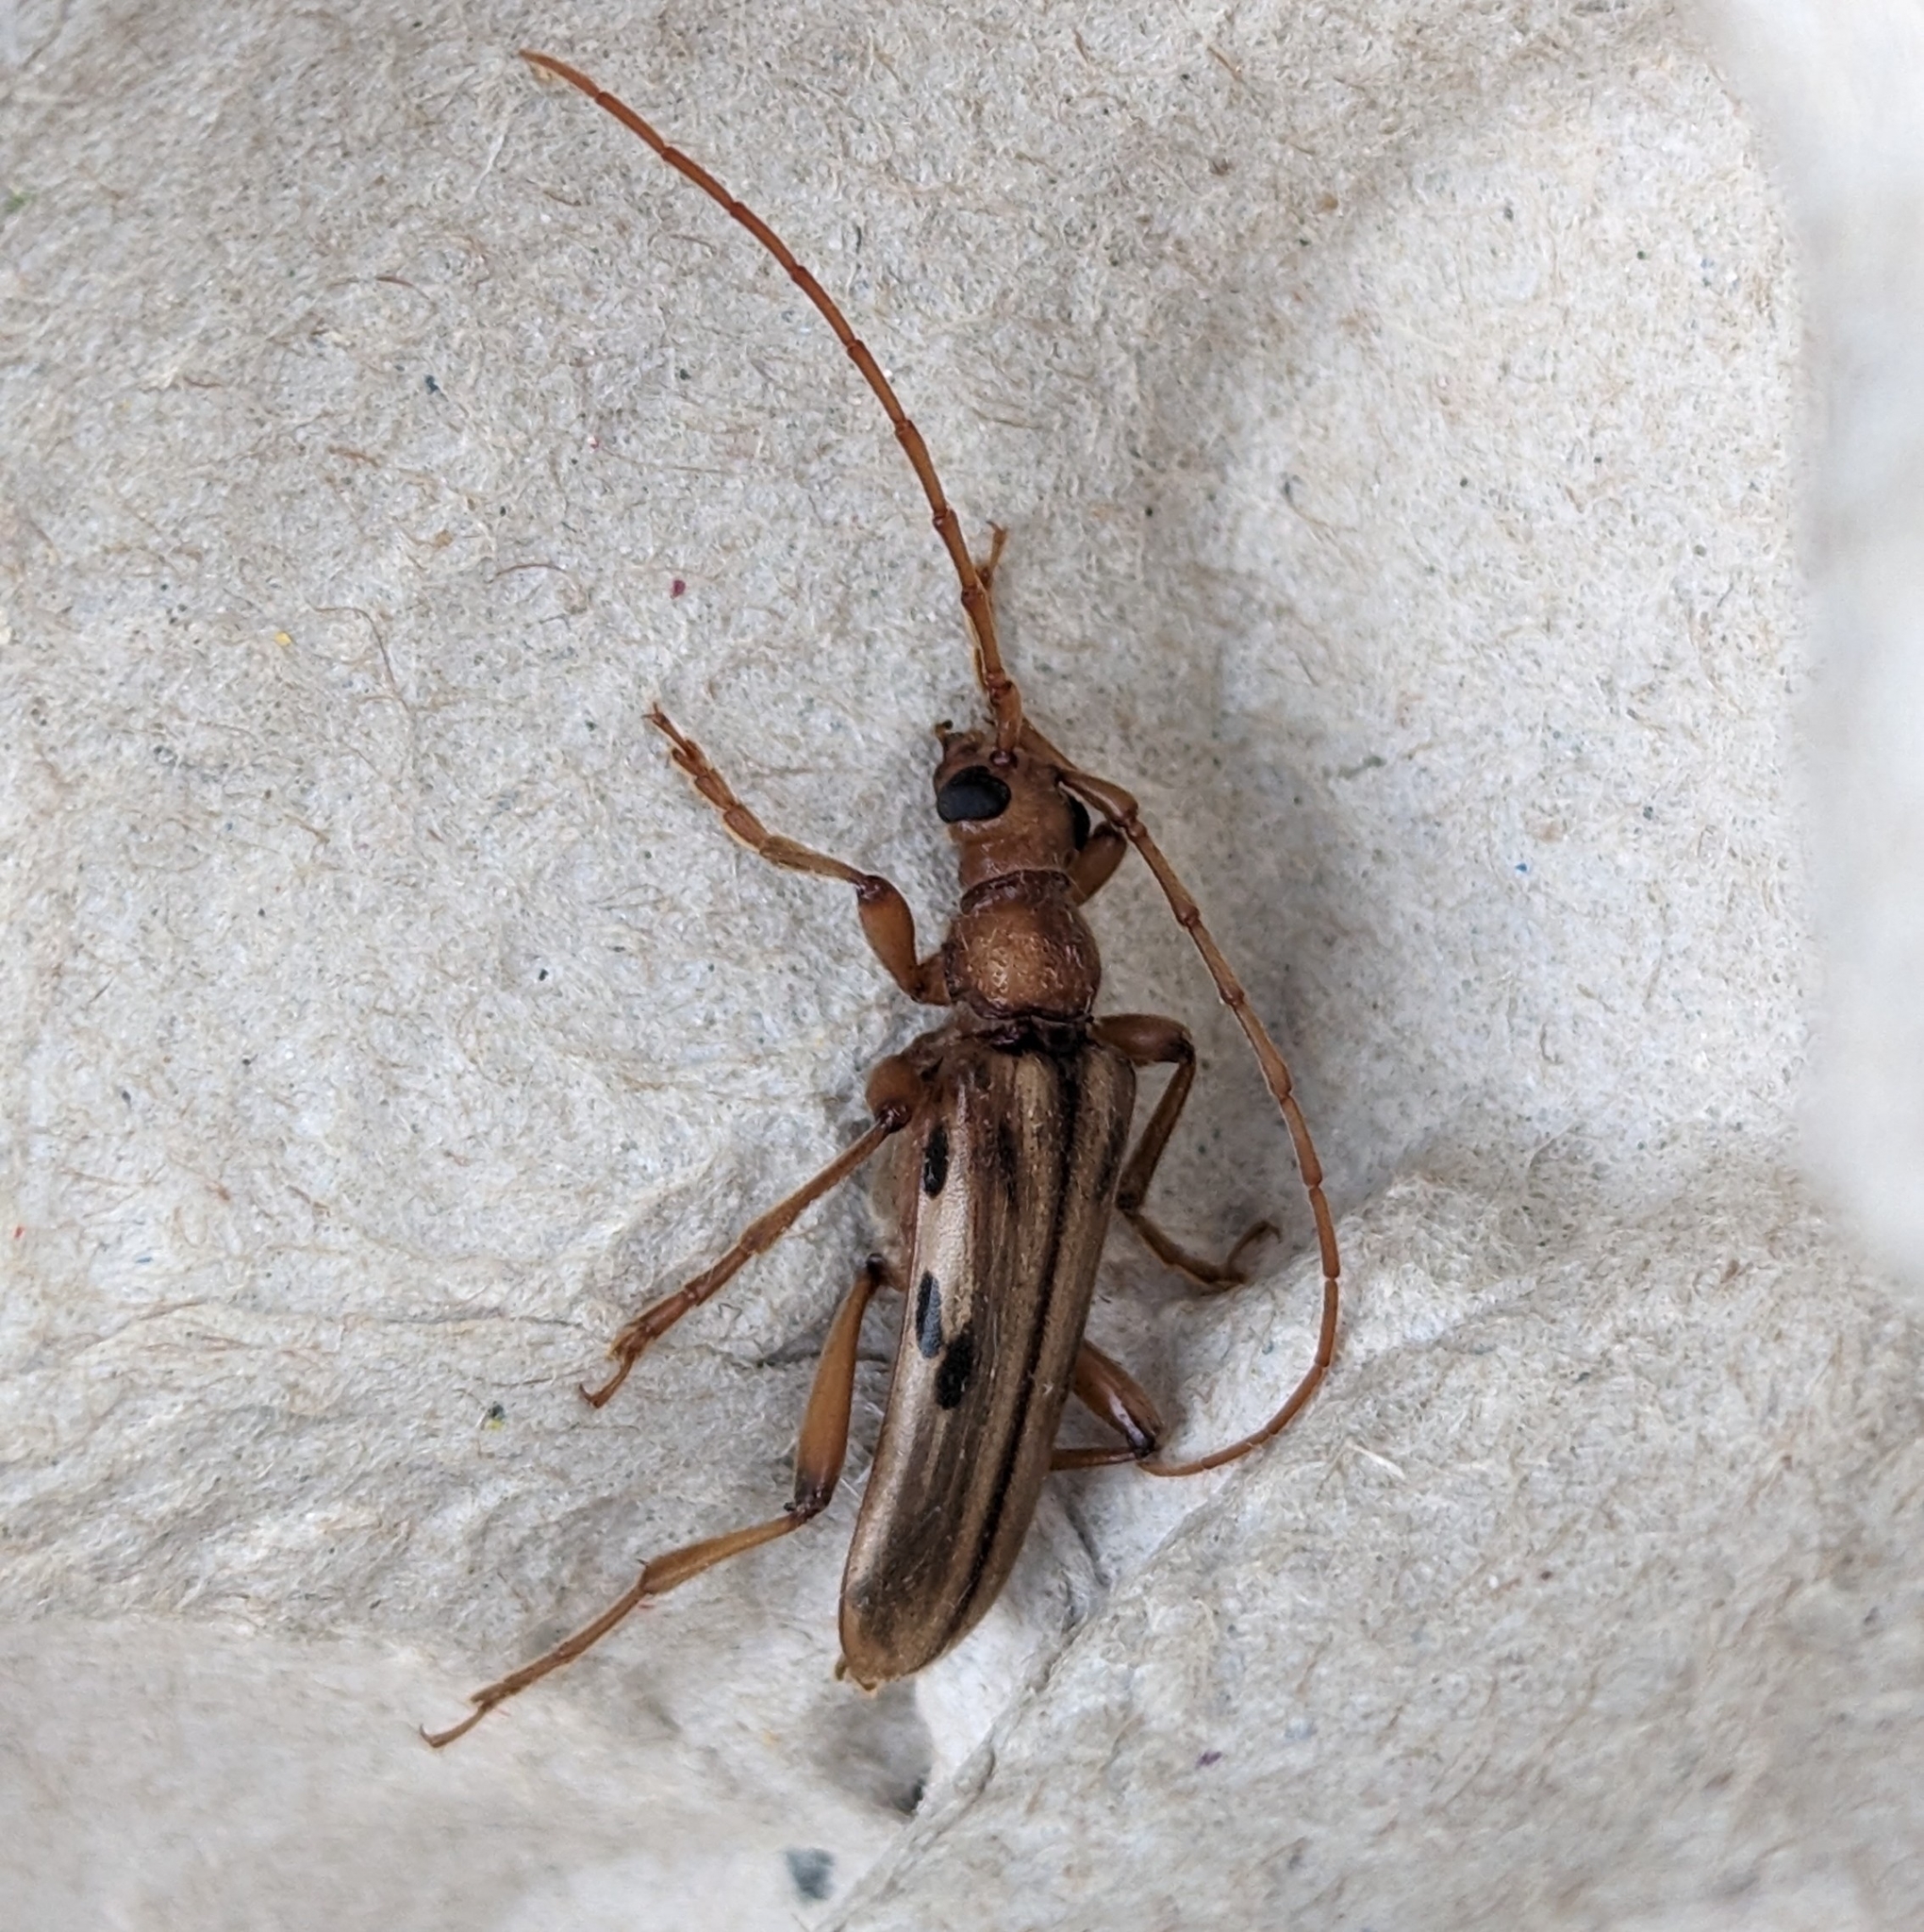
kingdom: Animalia
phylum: Arthropoda
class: Insecta
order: Coleoptera
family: Cerambycidae
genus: Ortholeptura
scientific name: Ortholeptura valida
